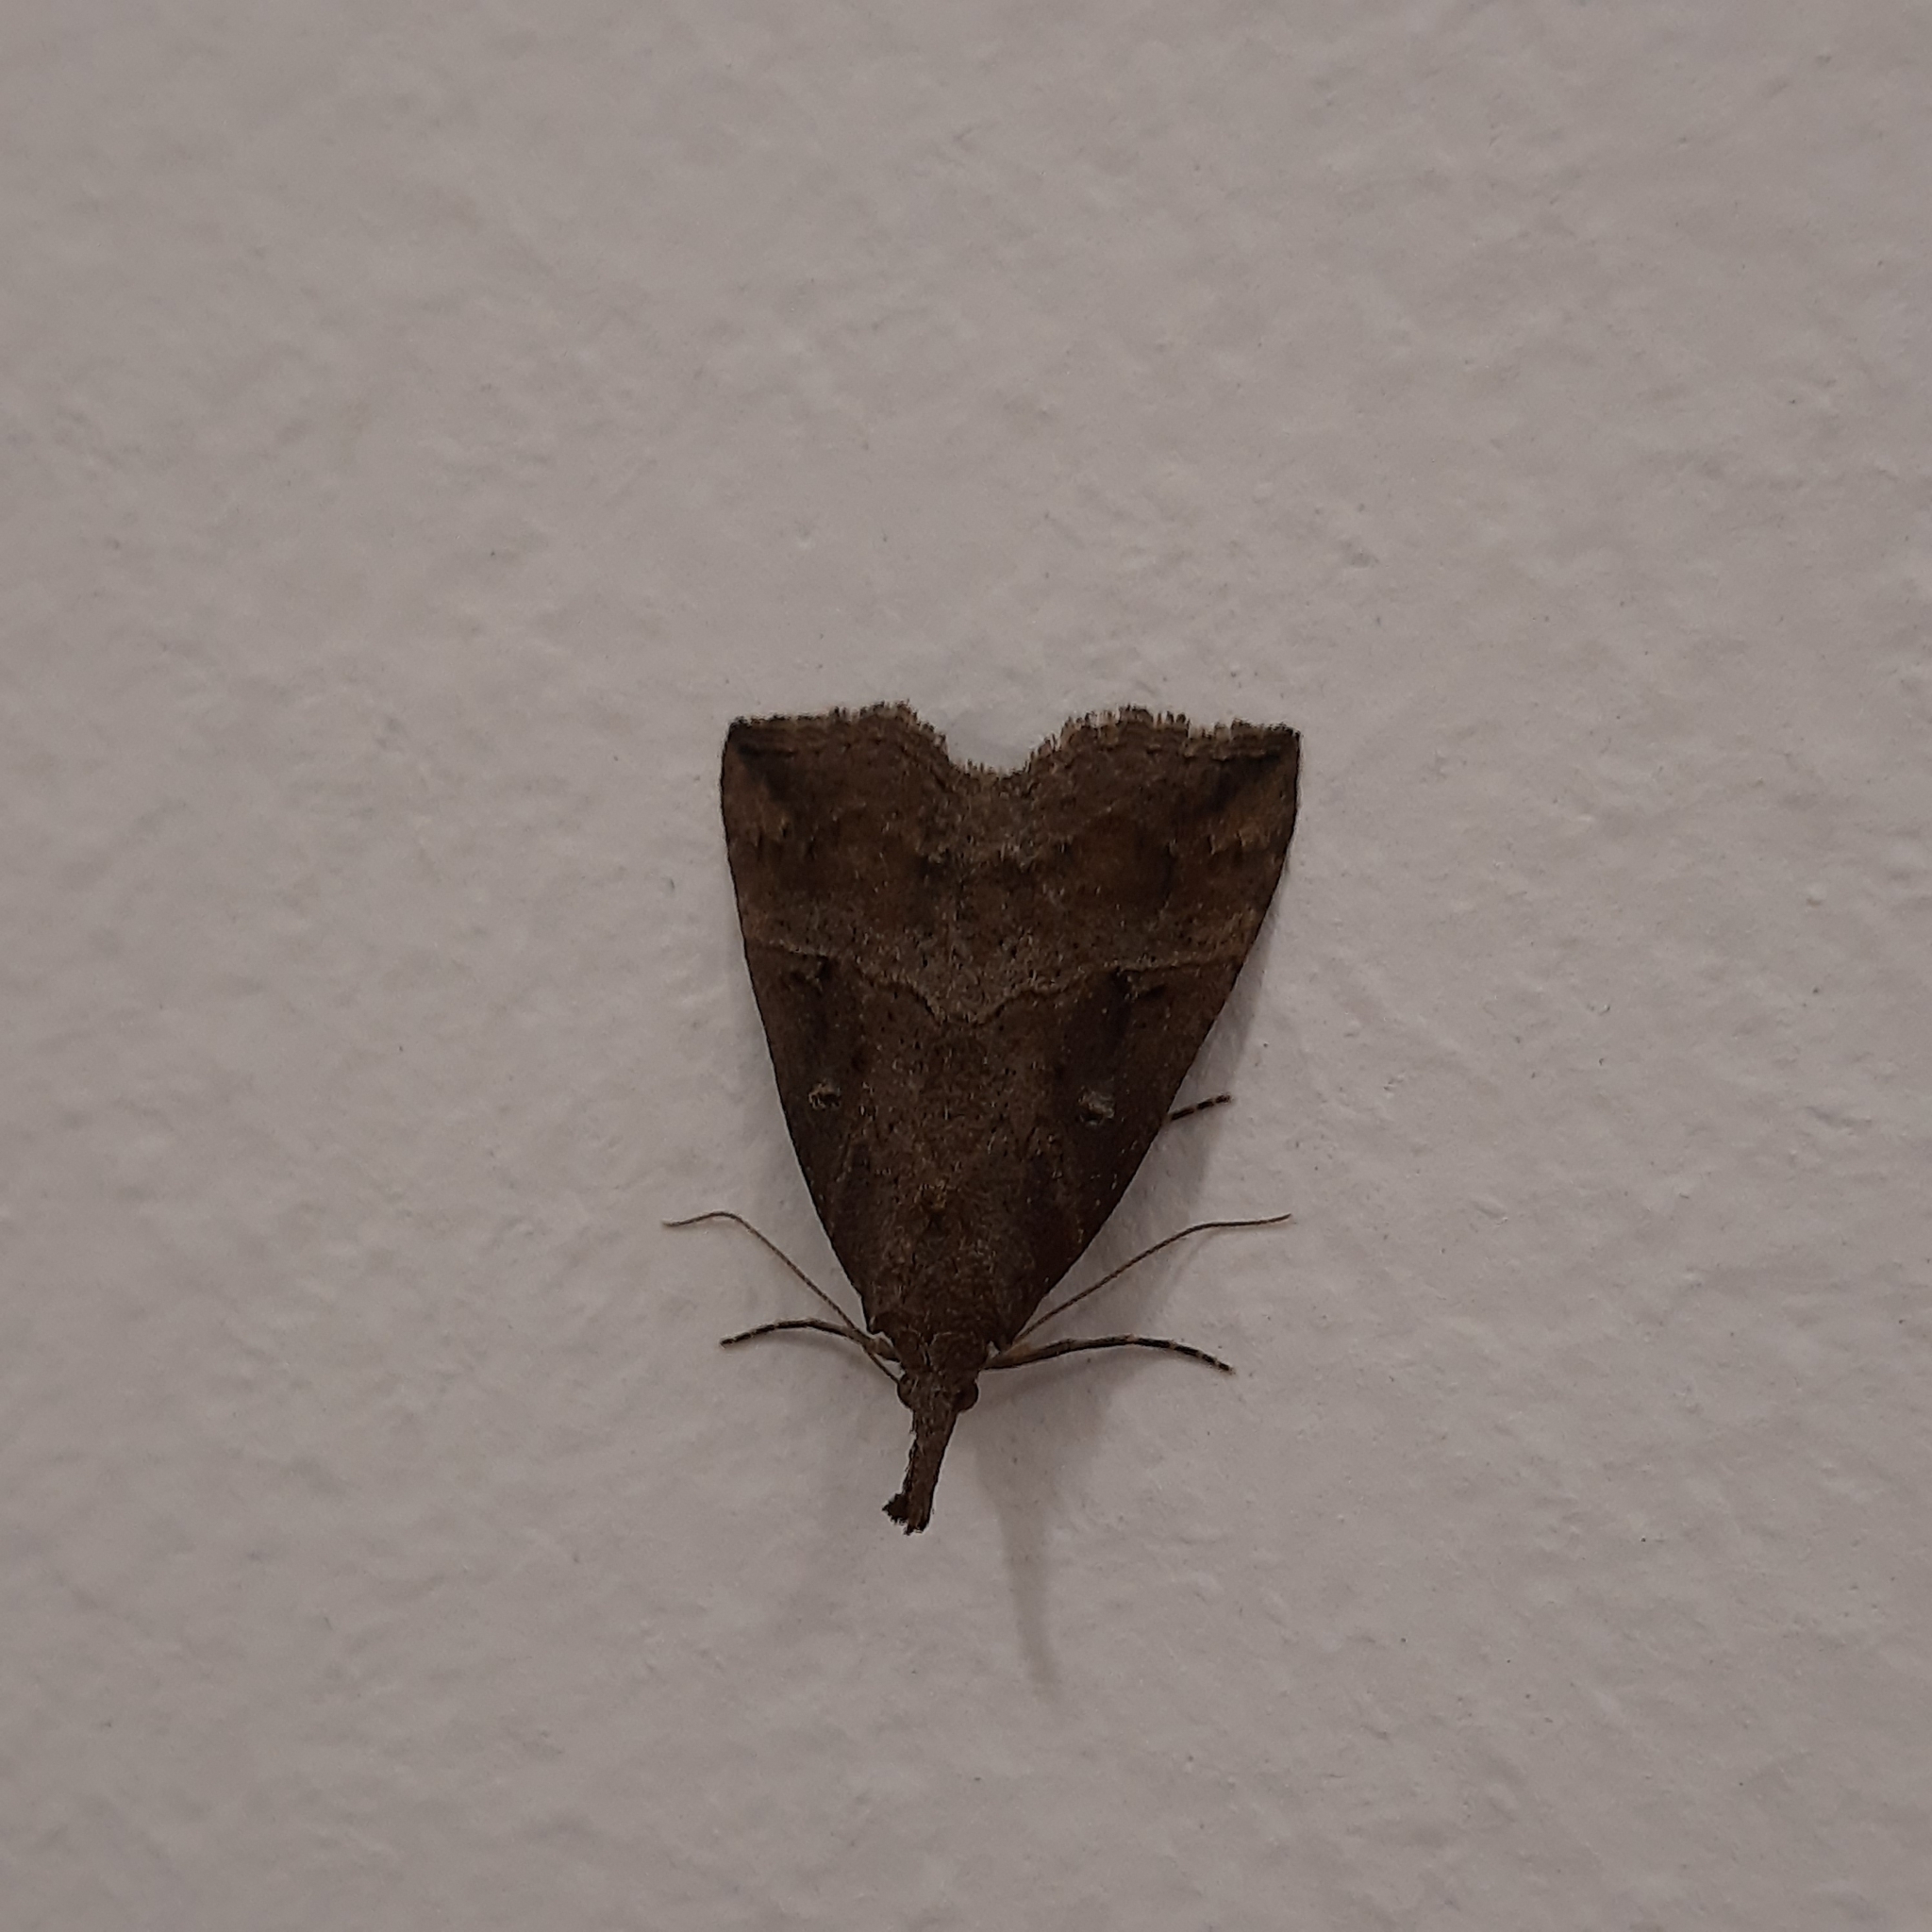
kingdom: Animalia
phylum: Arthropoda
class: Insecta
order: Lepidoptera
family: Erebidae
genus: Hypena
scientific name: Hypena rostralis
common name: Buttoned snout
